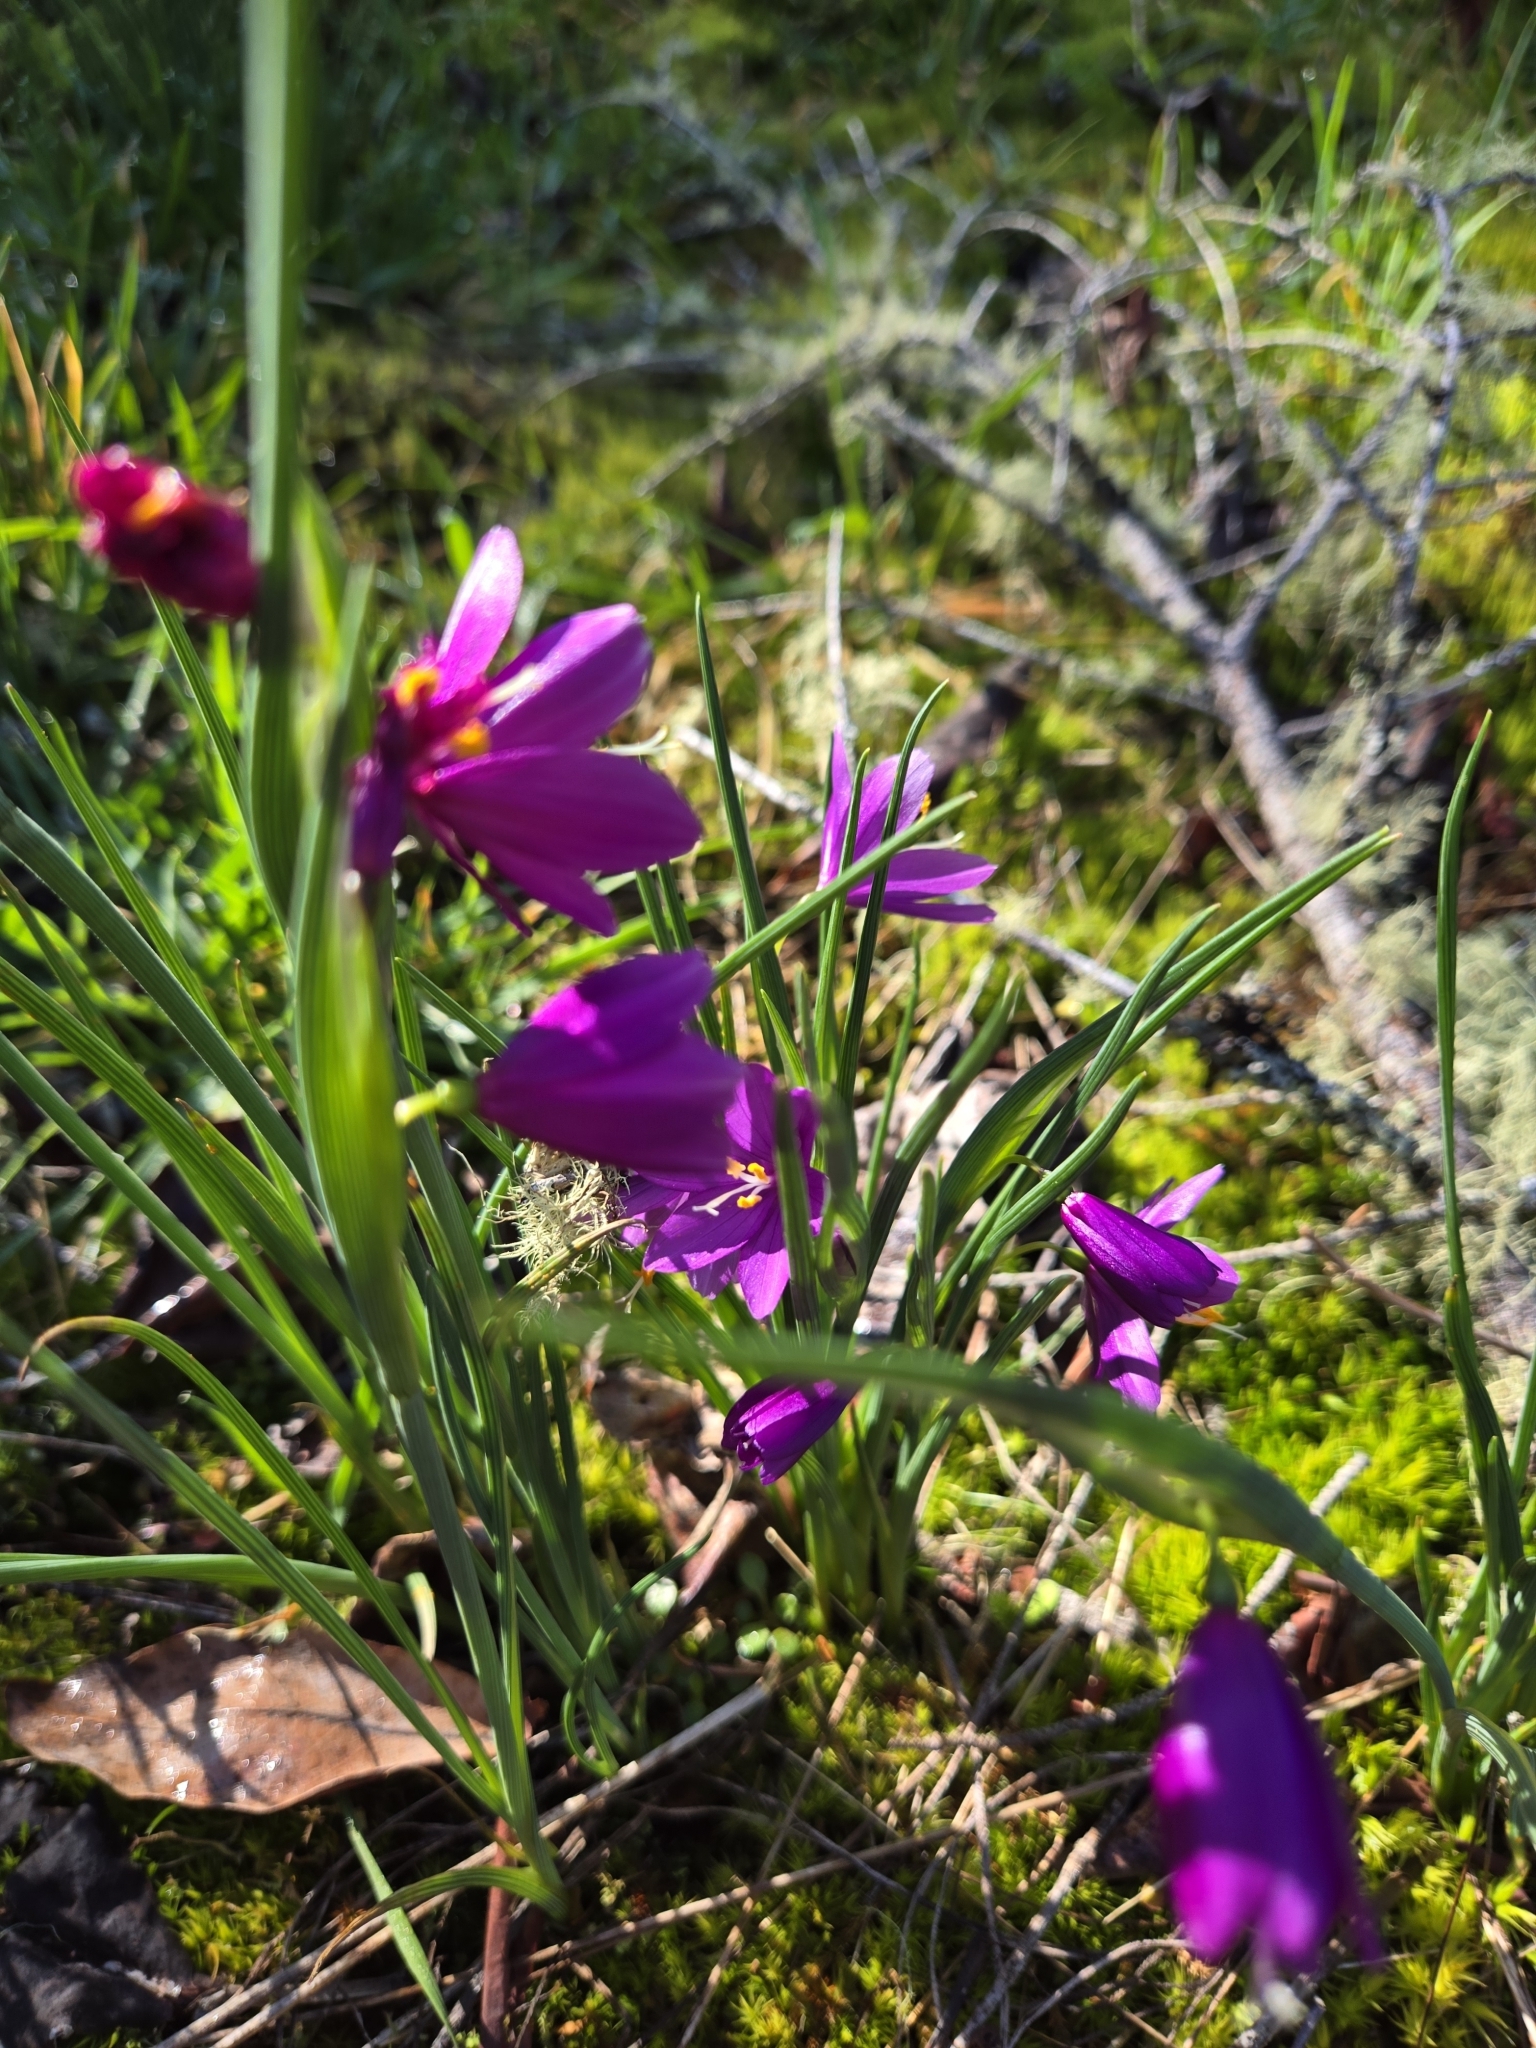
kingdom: Plantae
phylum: Tracheophyta
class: Liliopsida
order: Asparagales
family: Iridaceae
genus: Olsynium
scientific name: Olsynium douglasii
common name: Douglas' grasswidow
